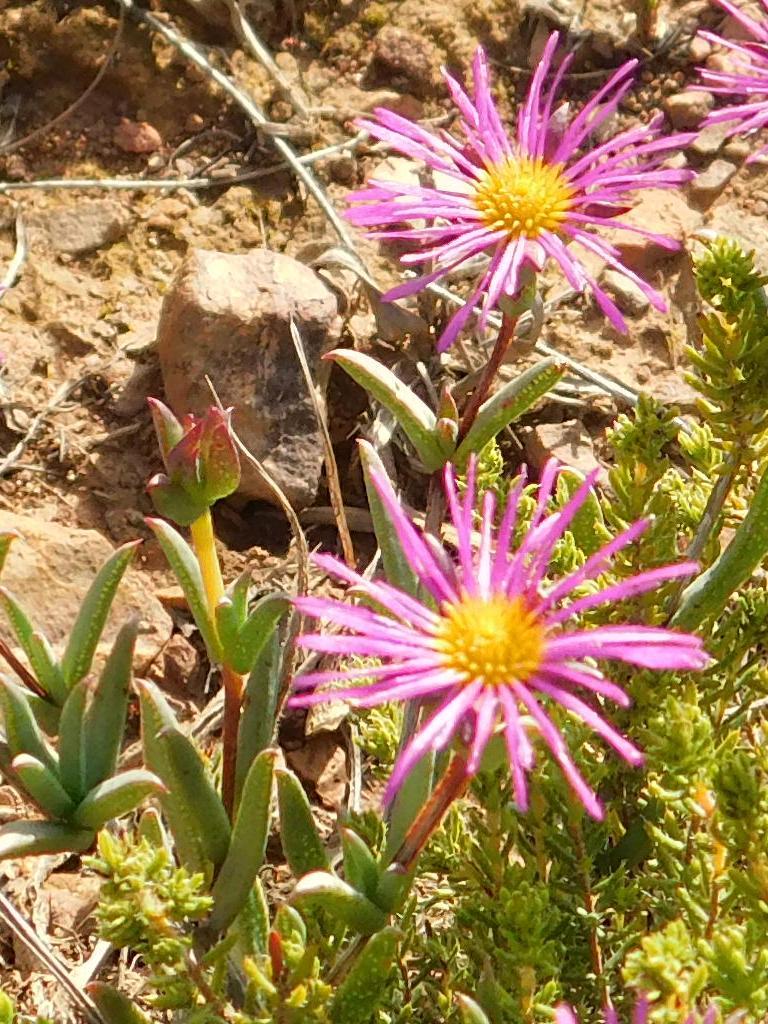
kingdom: Plantae
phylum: Tracheophyta
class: Magnoliopsida
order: Caryophyllales
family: Aizoaceae
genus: Erepsia
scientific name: Erepsia bracteata
